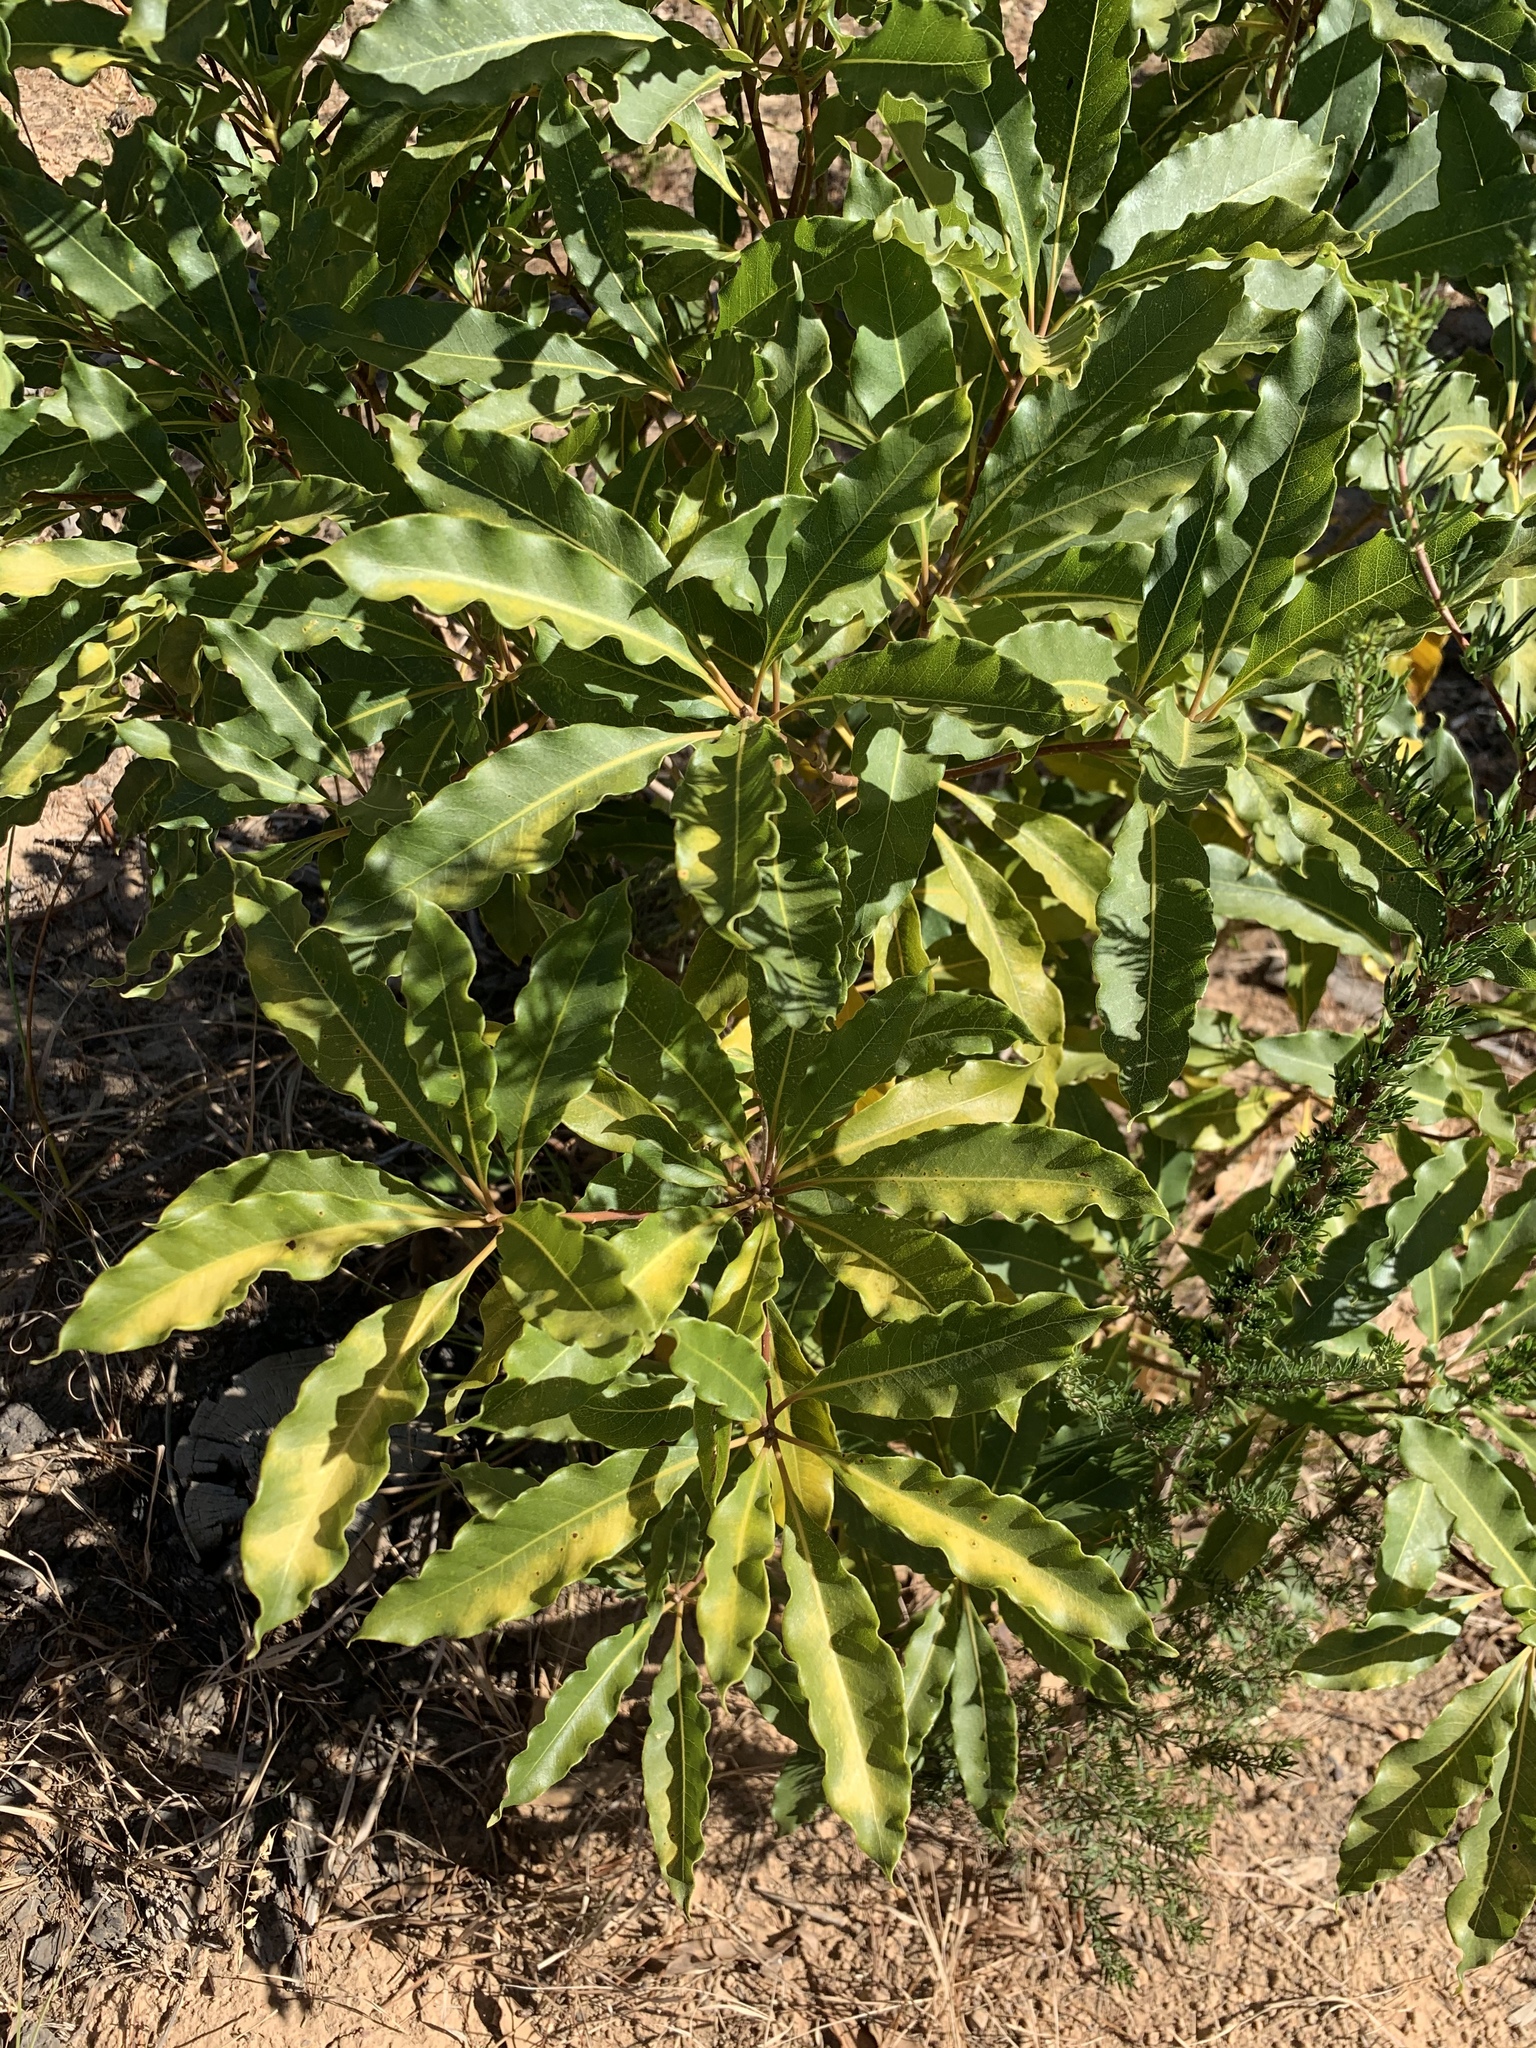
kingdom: Plantae
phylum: Tracheophyta
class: Magnoliopsida
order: Apiales
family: Pittosporaceae
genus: Pittosporum
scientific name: Pittosporum undulatum
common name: Australian cheesewood
